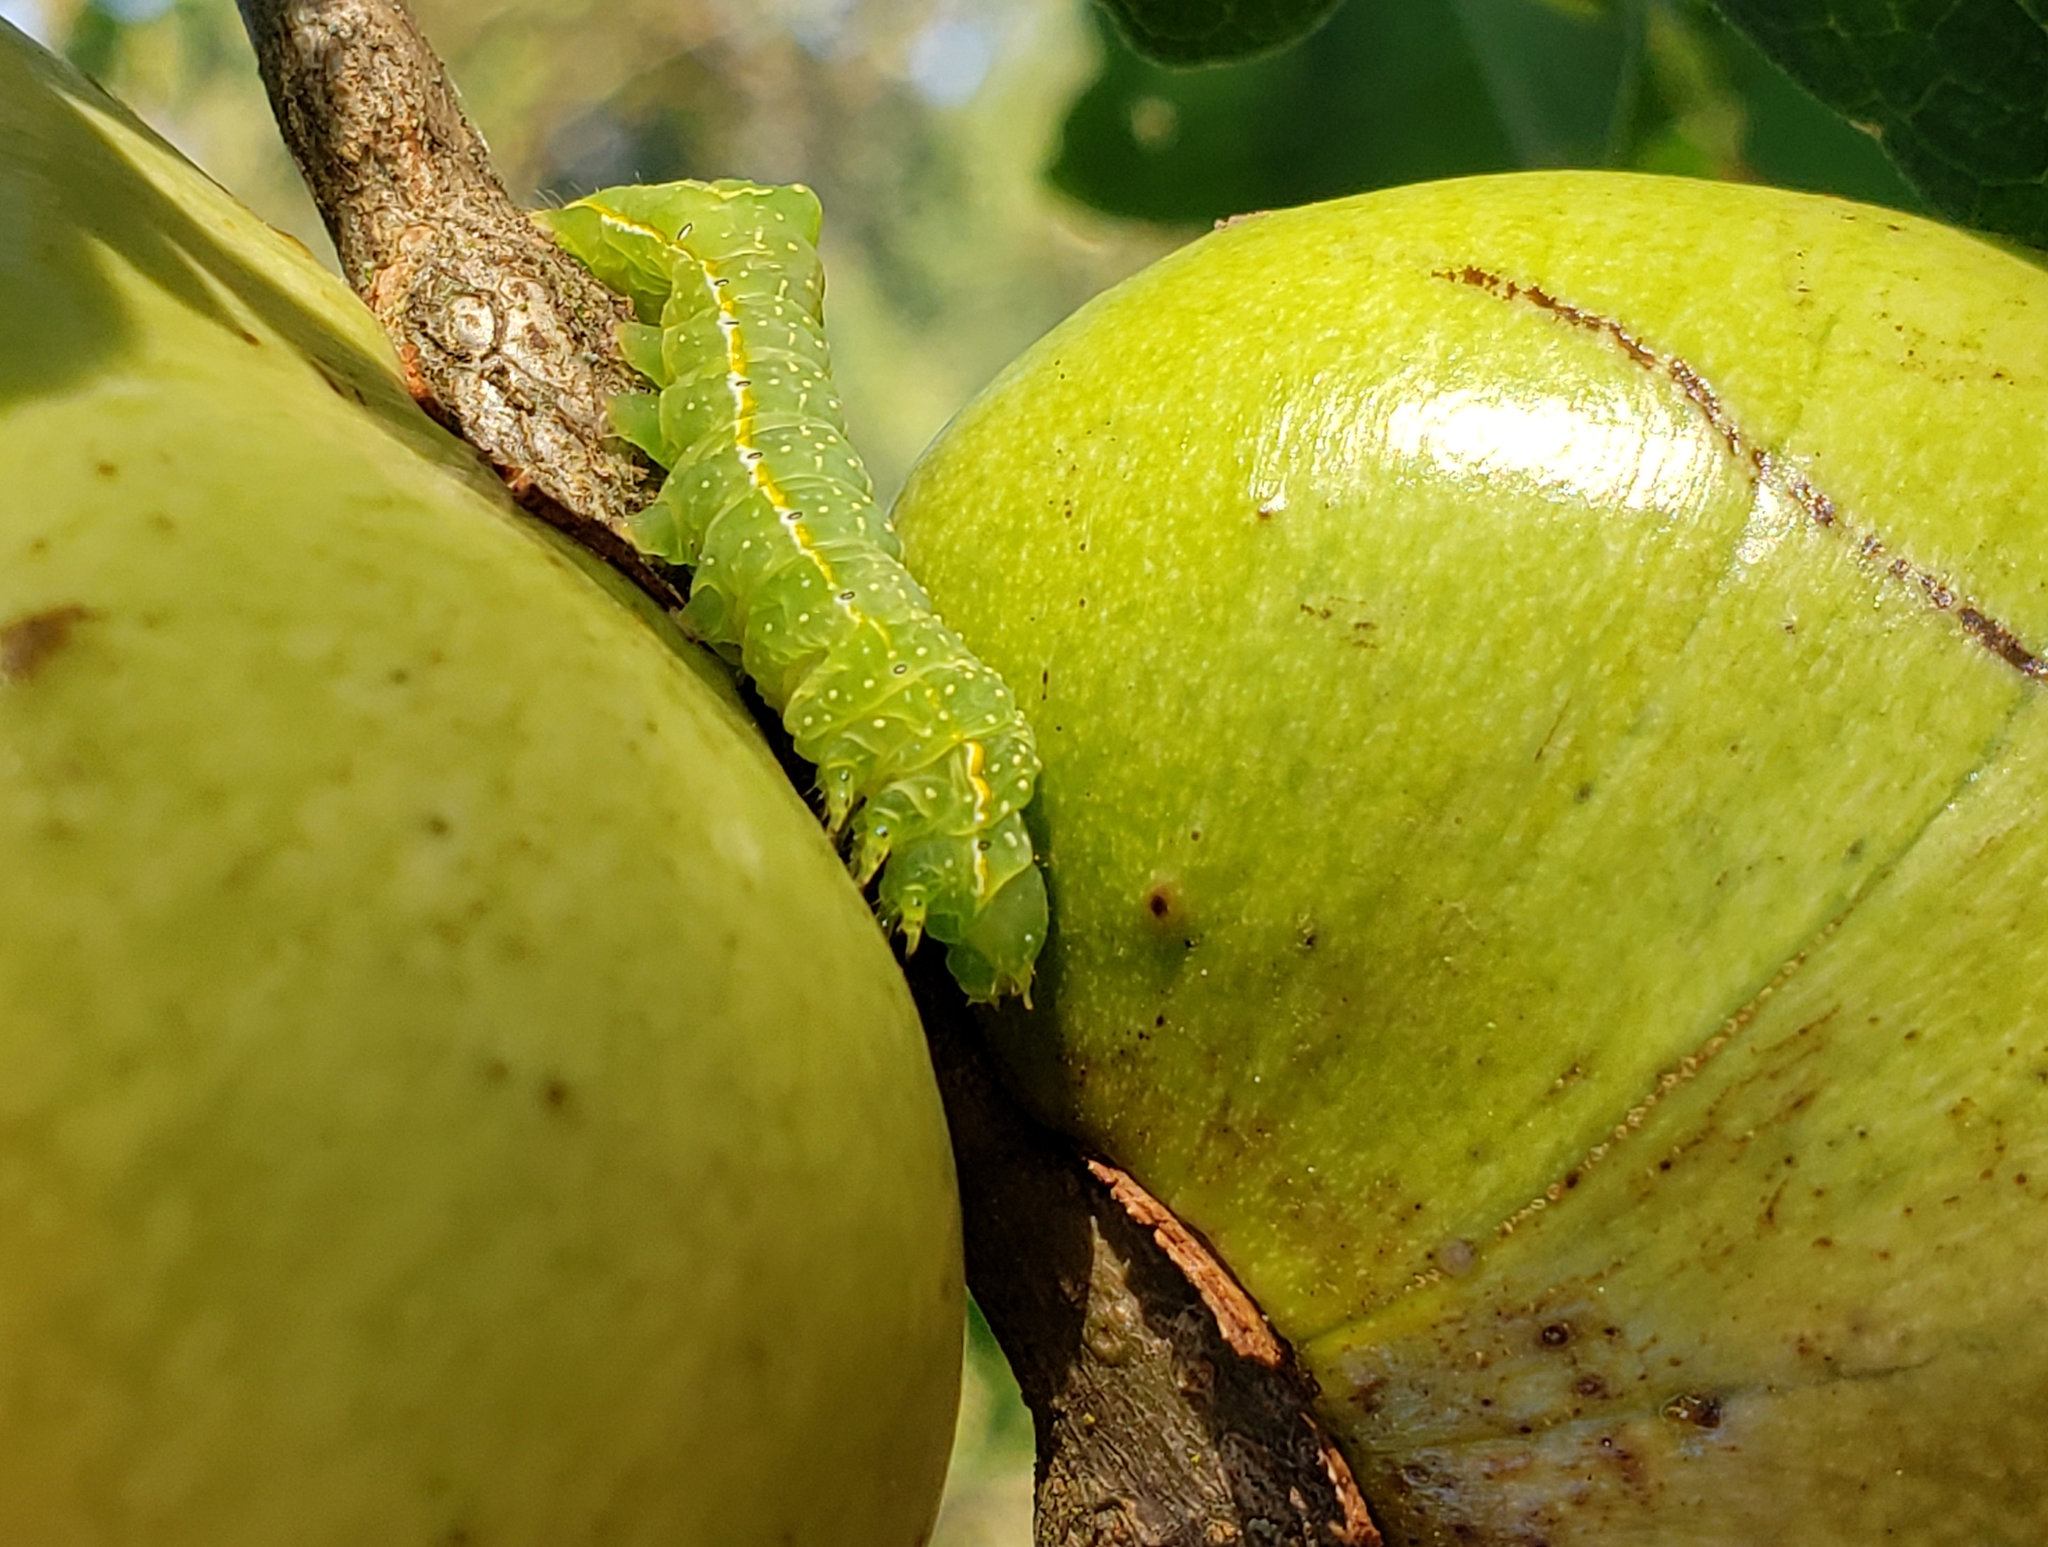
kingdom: Animalia
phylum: Arthropoda
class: Insecta
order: Lepidoptera
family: Noctuidae
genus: Amphipyra
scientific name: Amphipyra pyramidoides
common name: American copper underwing
